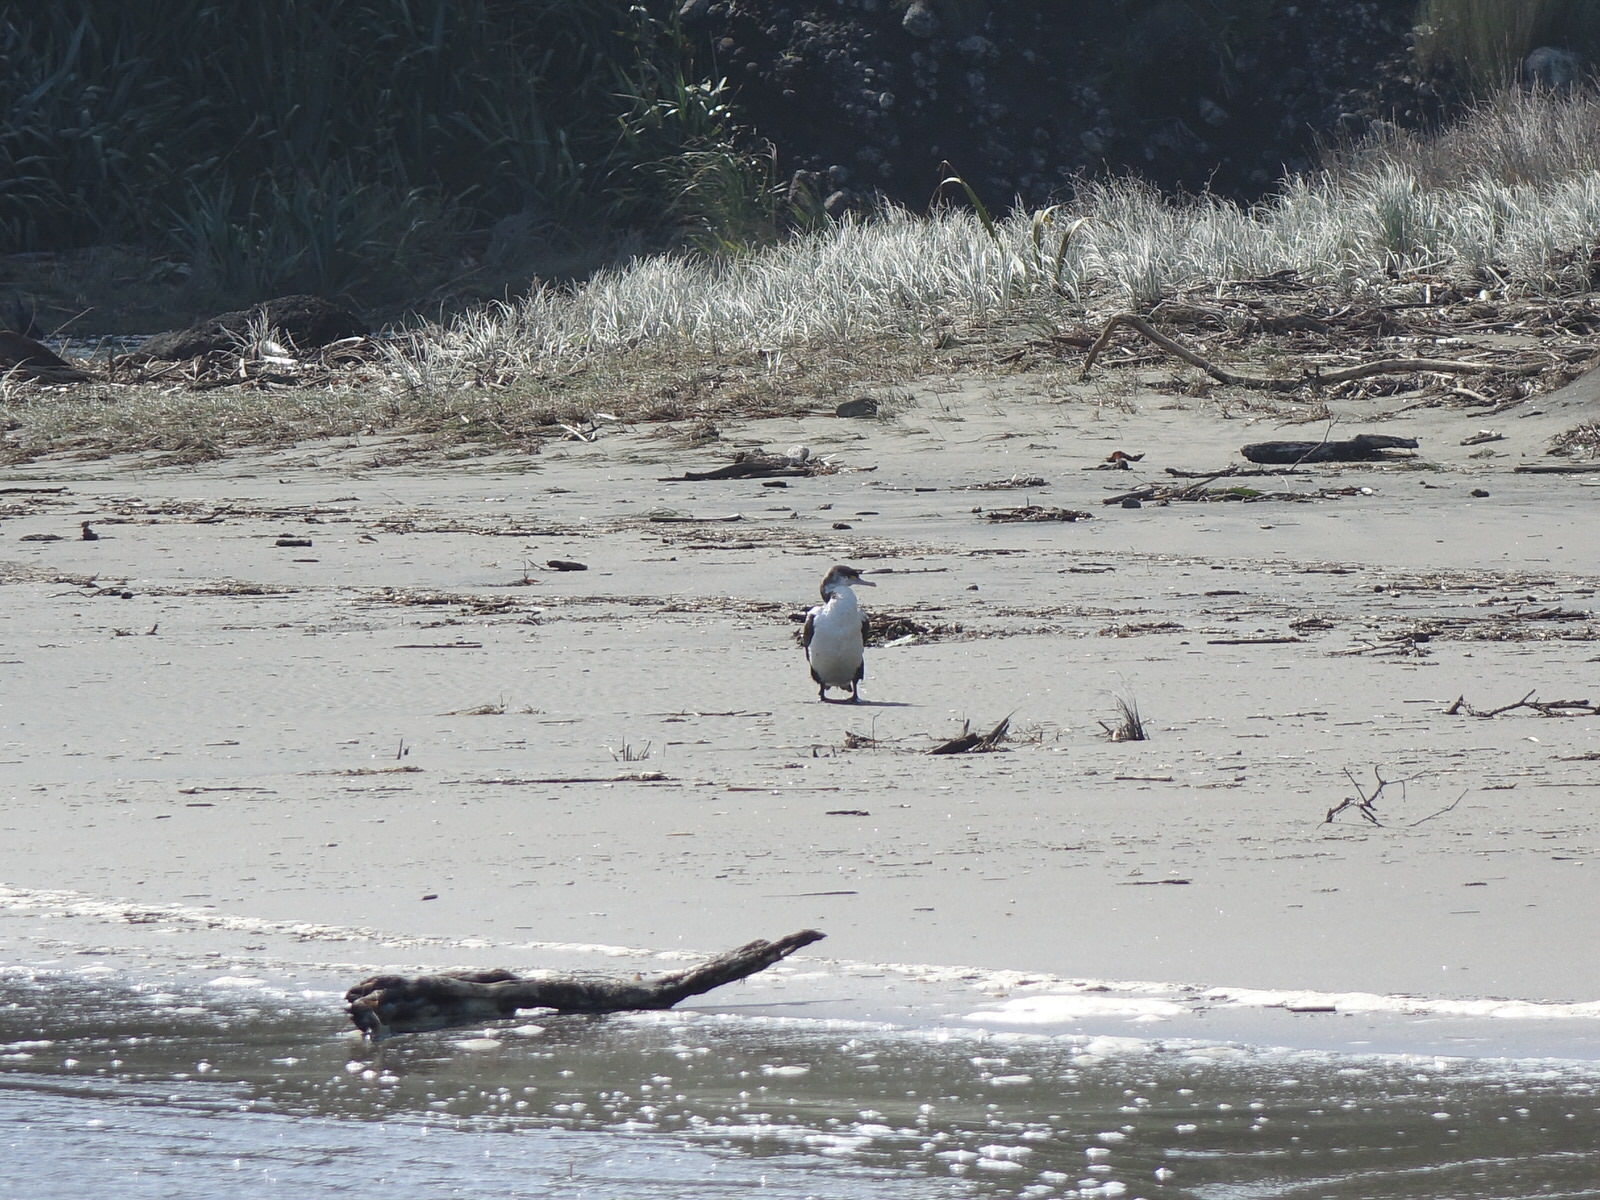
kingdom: Animalia
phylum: Chordata
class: Aves
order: Suliformes
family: Phalacrocoracidae
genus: Phalacrocorax
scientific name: Phalacrocorax varius
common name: Pied cormorant
